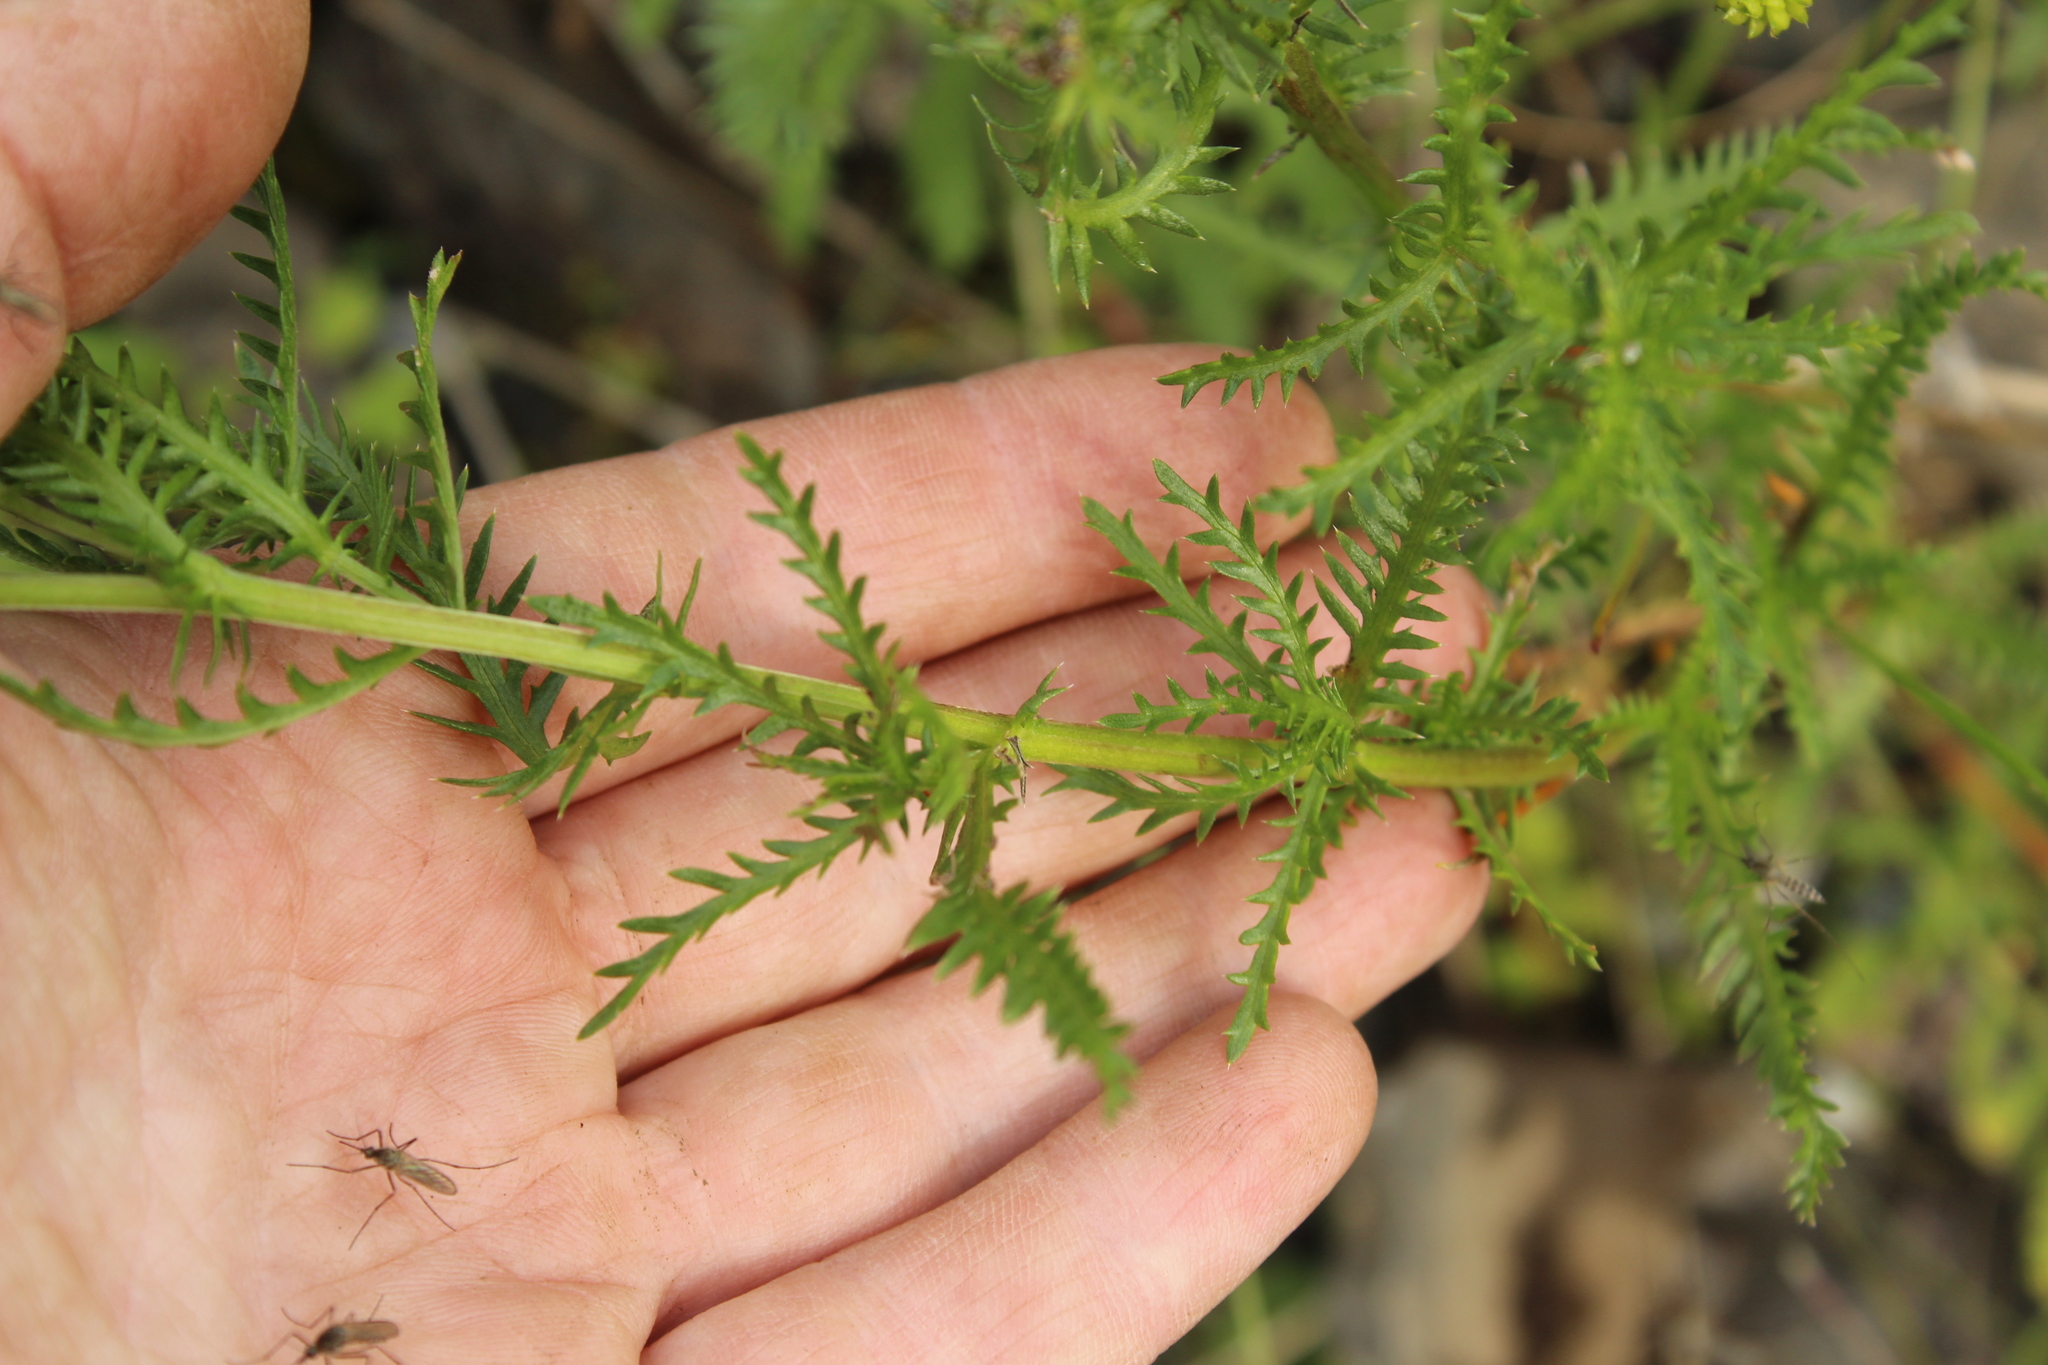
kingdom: Plantae
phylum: Tracheophyta
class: Magnoliopsida
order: Asterales
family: Asteraceae
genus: Achillea
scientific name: Achillea impatiens
